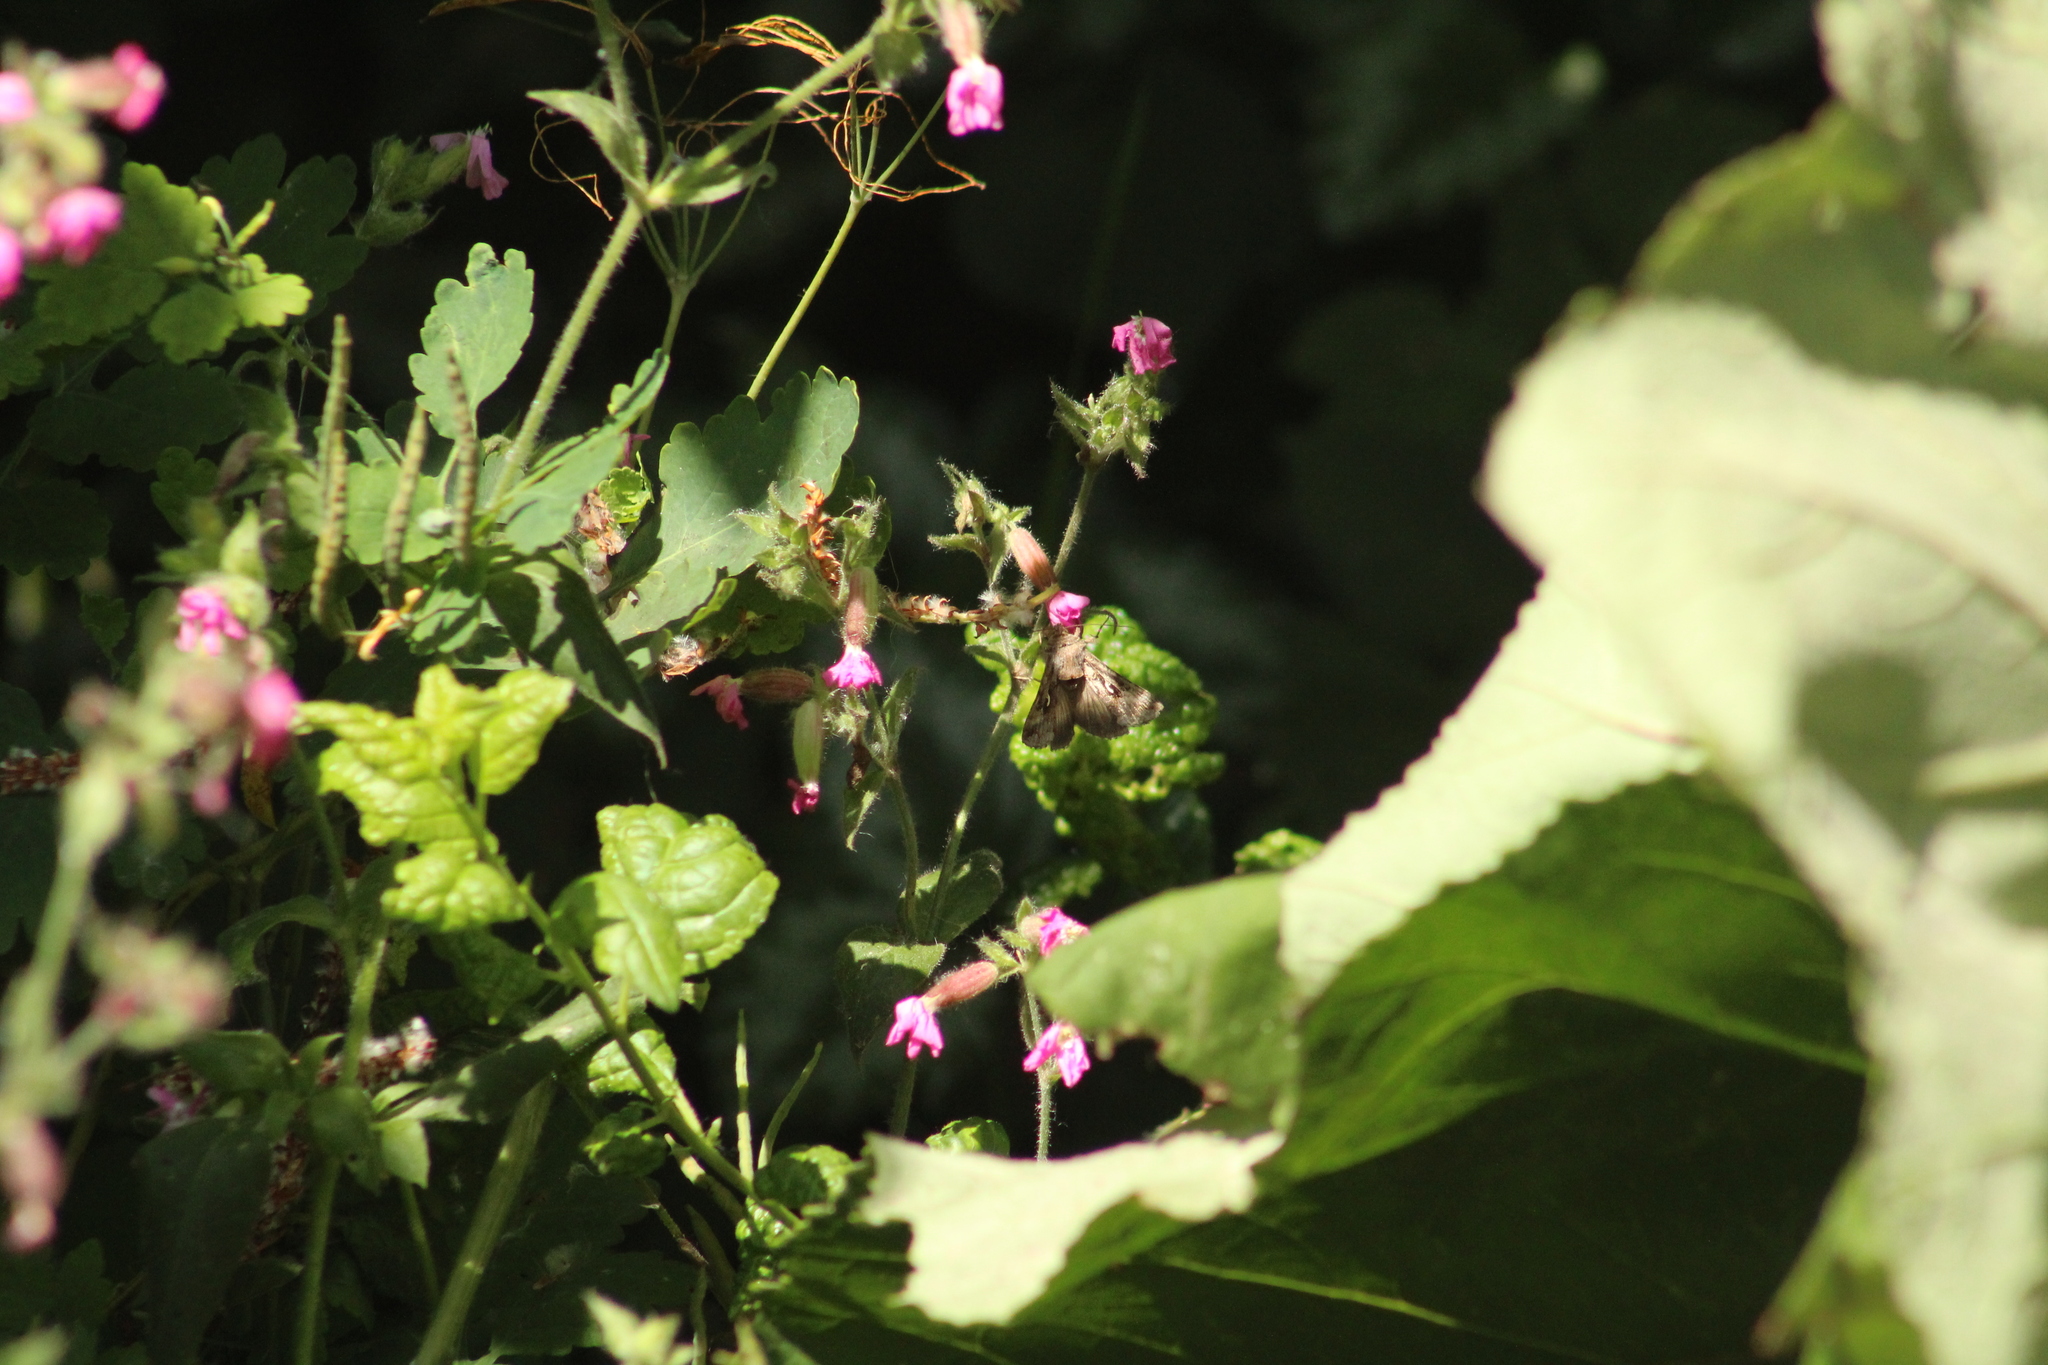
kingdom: Animalia
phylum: Arthropoda
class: Insecta
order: Lepidoptera
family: Noctuidae
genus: Autographa
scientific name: Autographa gamma
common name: Silver y
